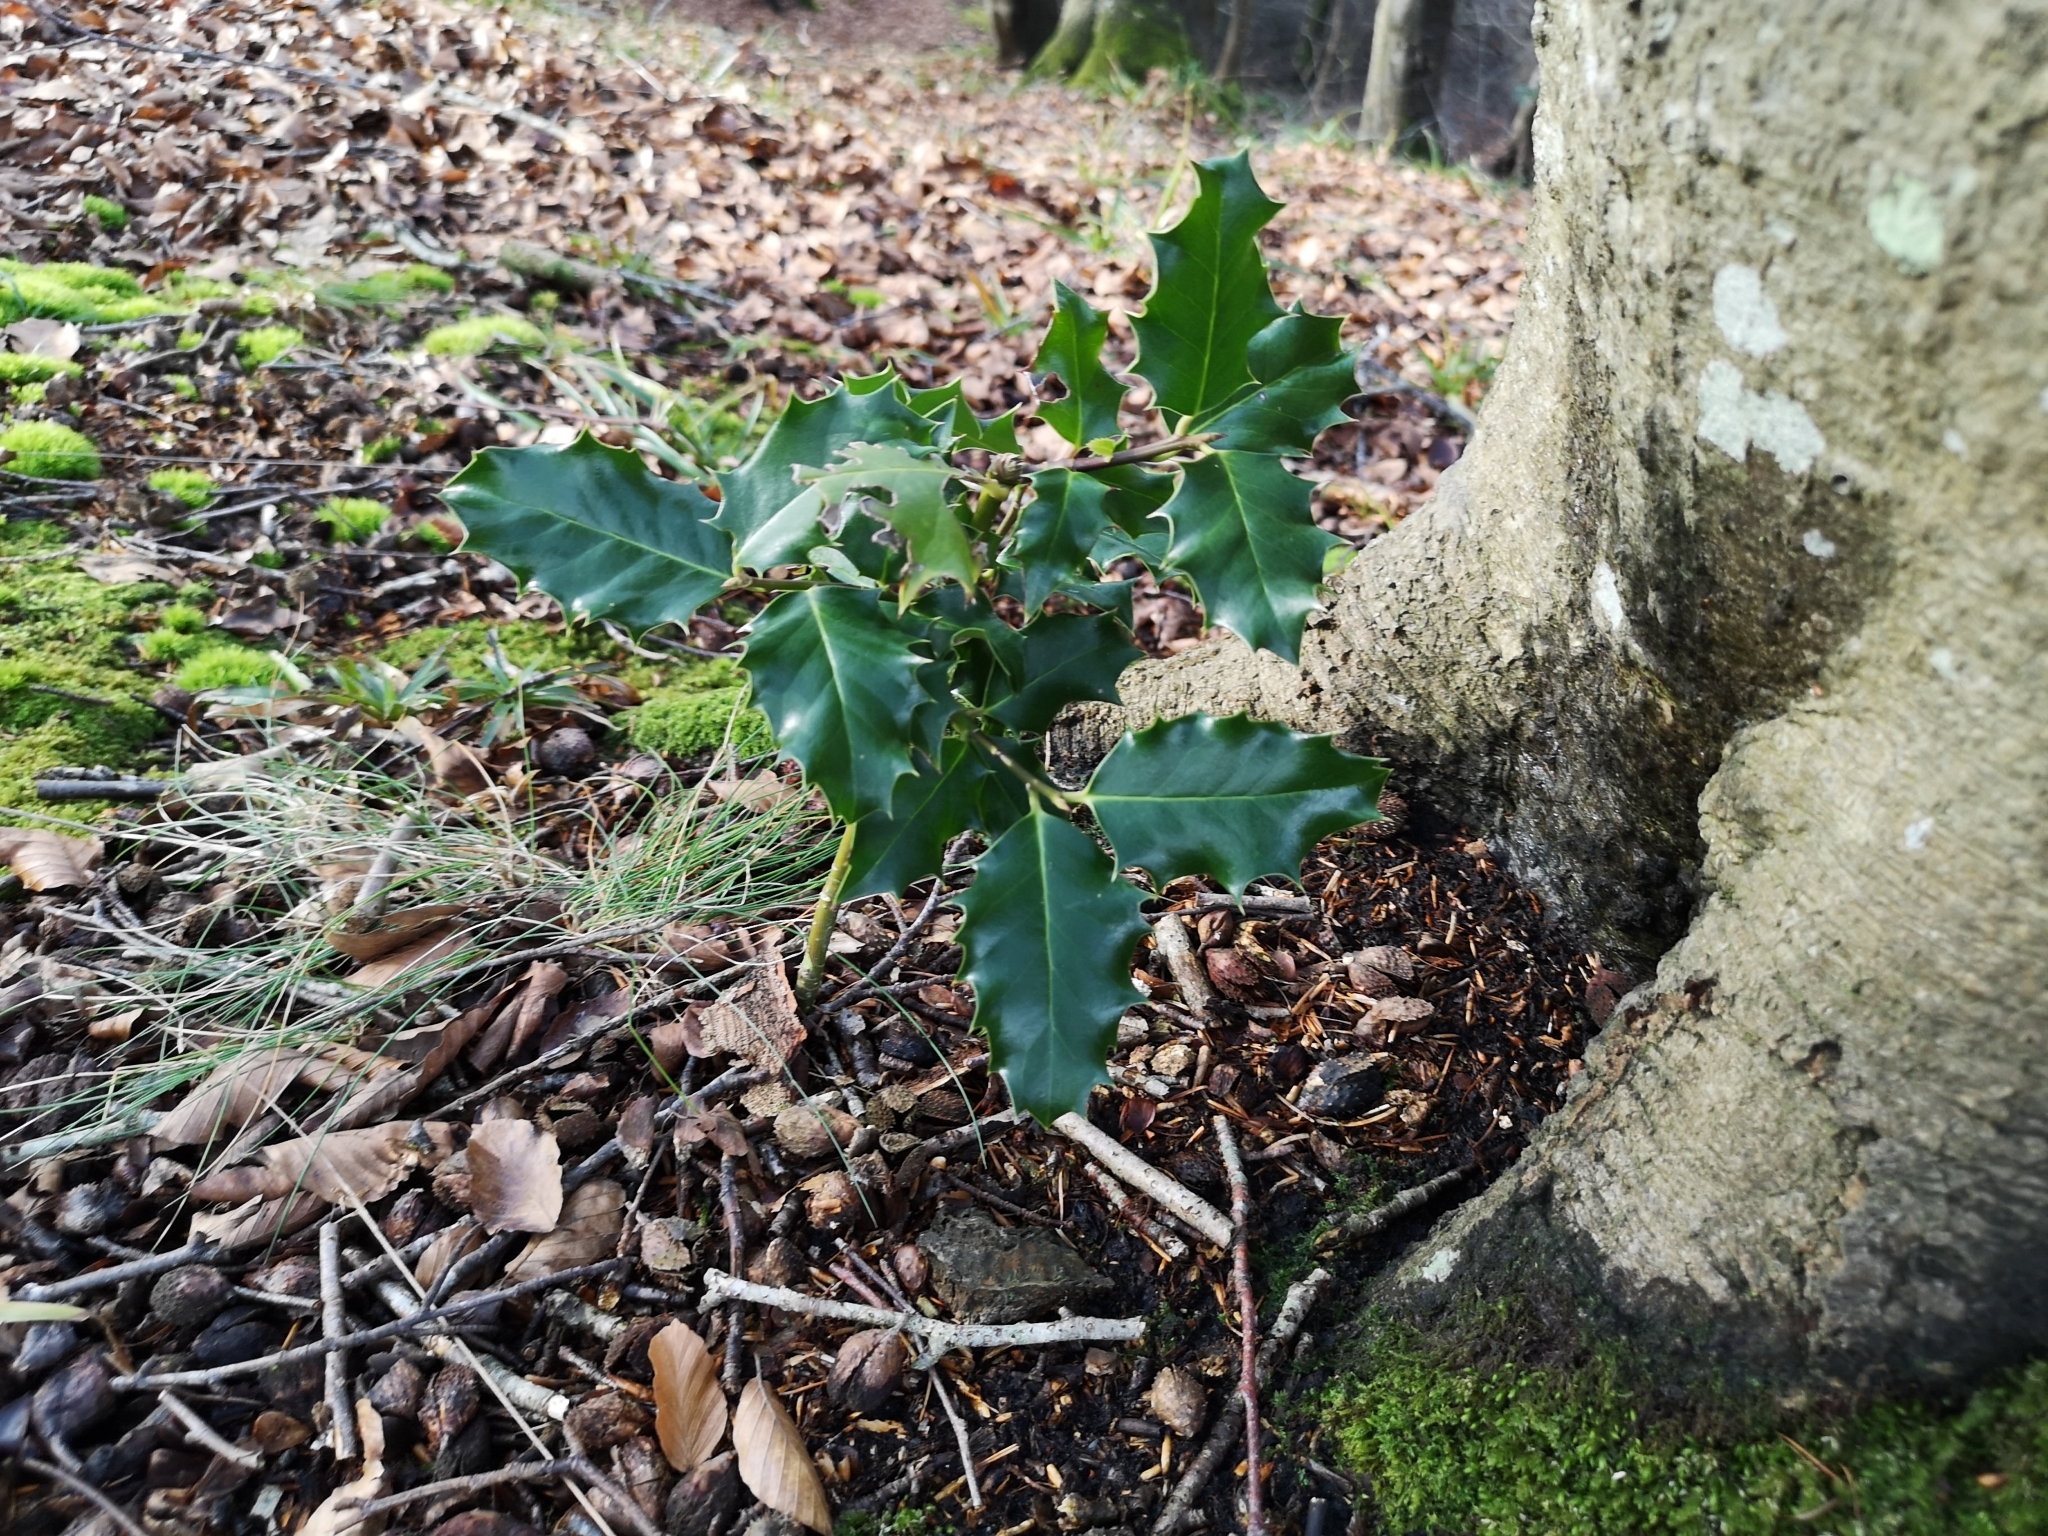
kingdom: Plantae
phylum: Tracheophyta
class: Magnoliopsida
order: Aquifoliales
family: Aquifoliaceae
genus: Ilex
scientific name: Ilex aquifolium
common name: English holly
